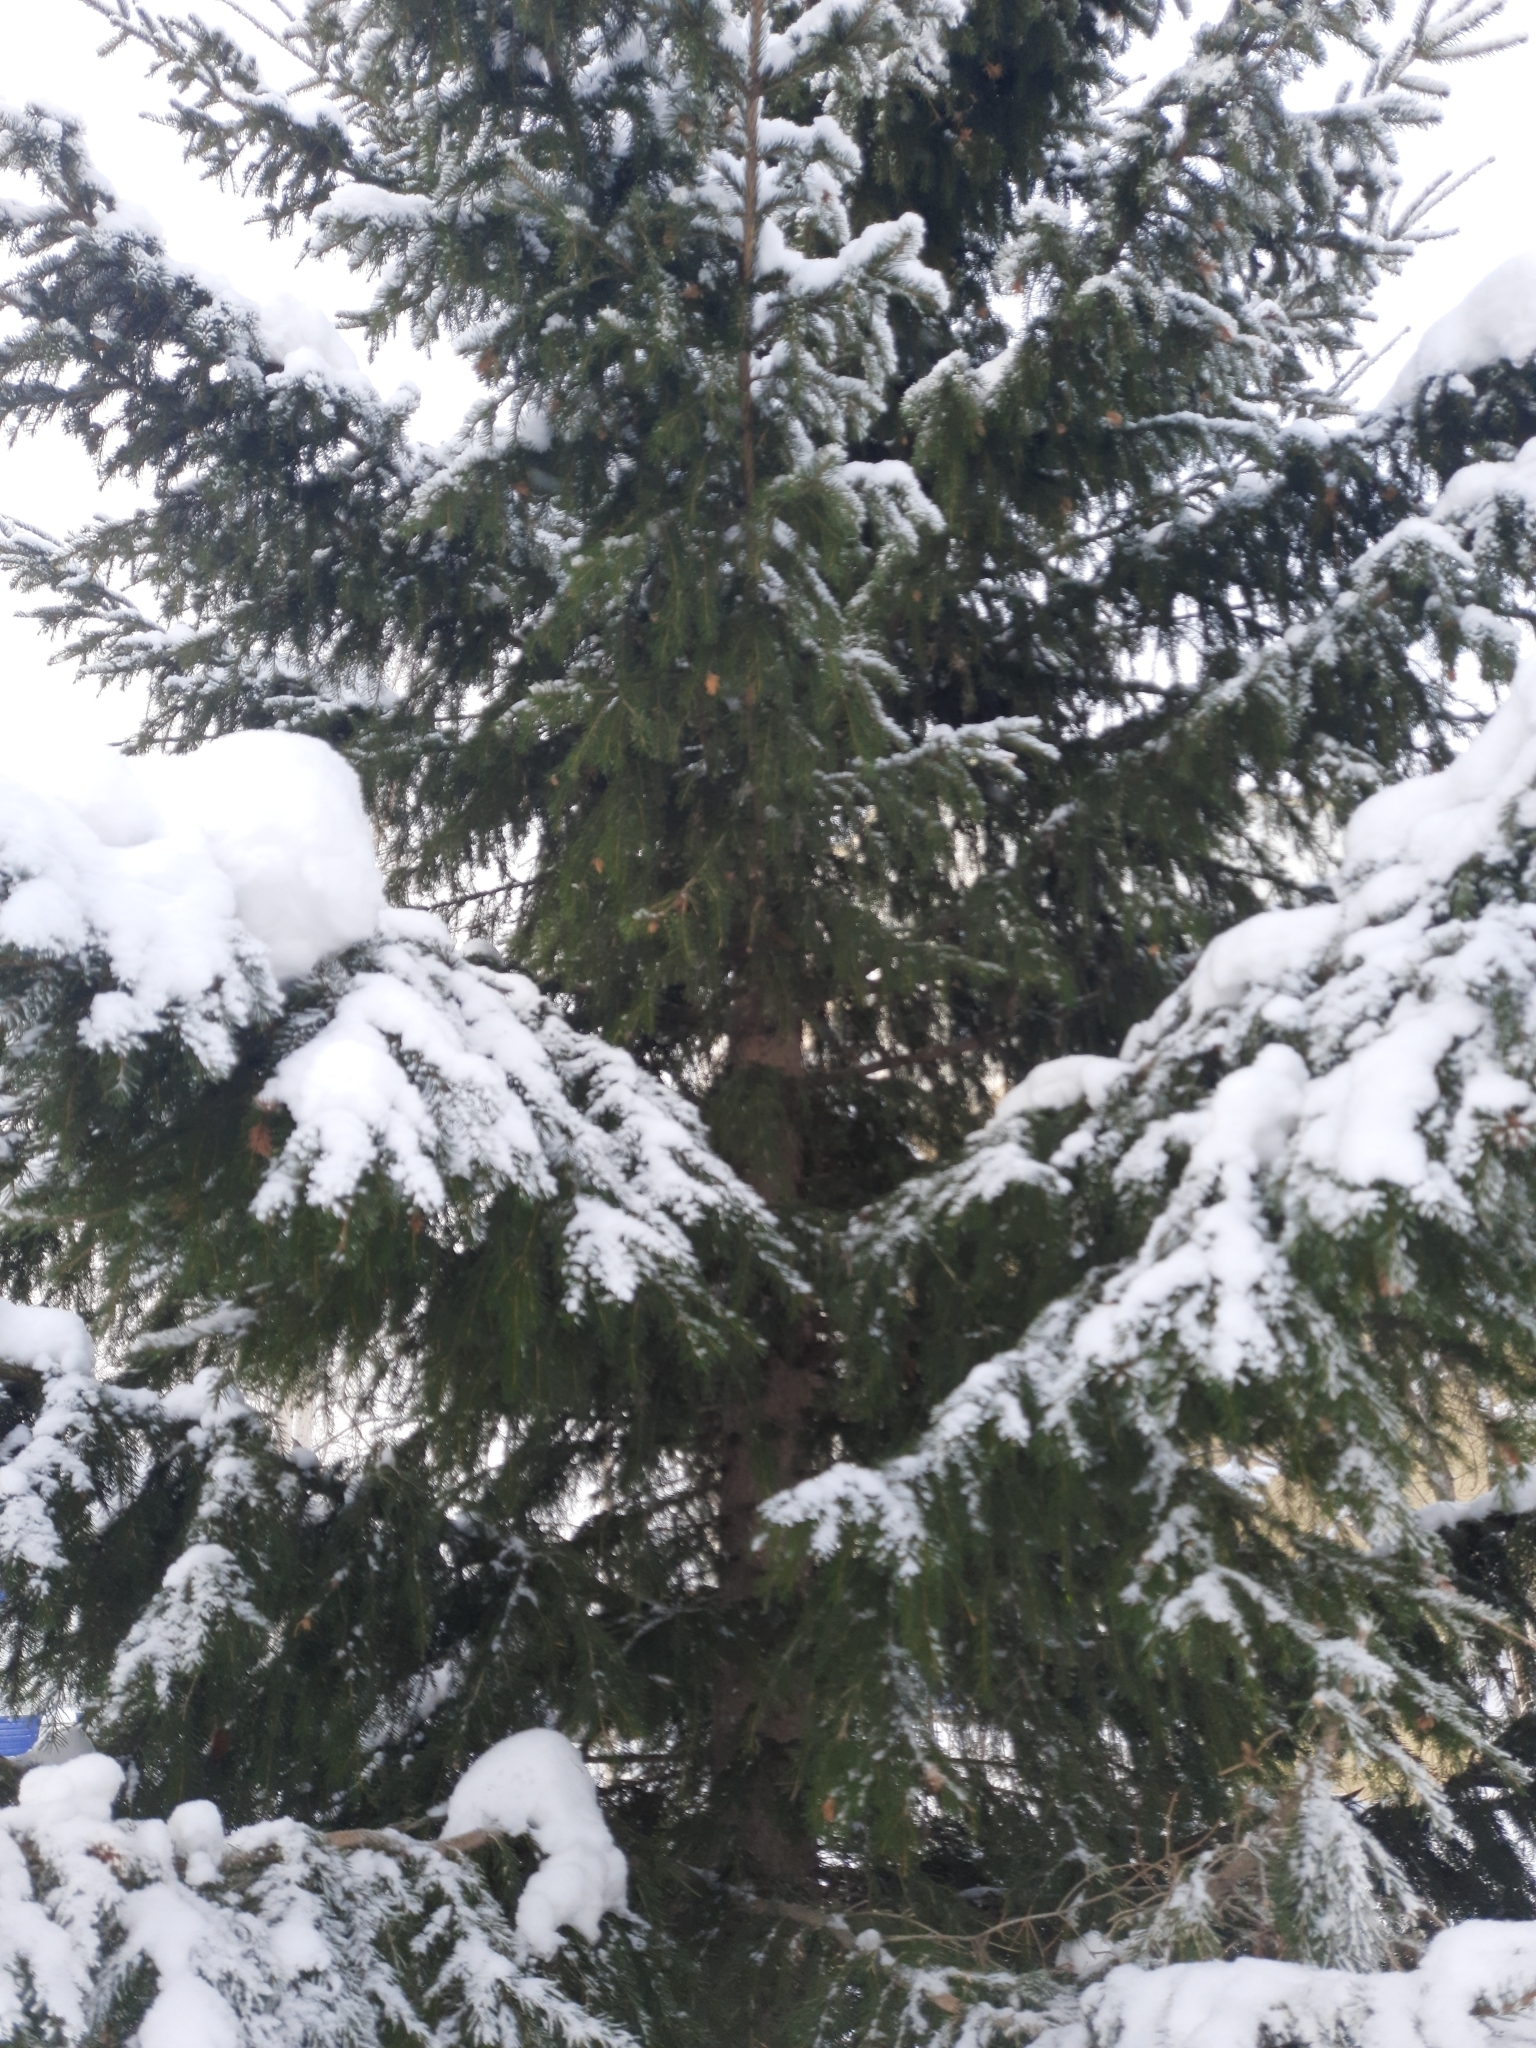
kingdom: Plantae
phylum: Tracheophyta
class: Pinopsida
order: Pinales
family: Pinaceae
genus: Picea
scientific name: Picea obovata
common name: Siberian spruce
